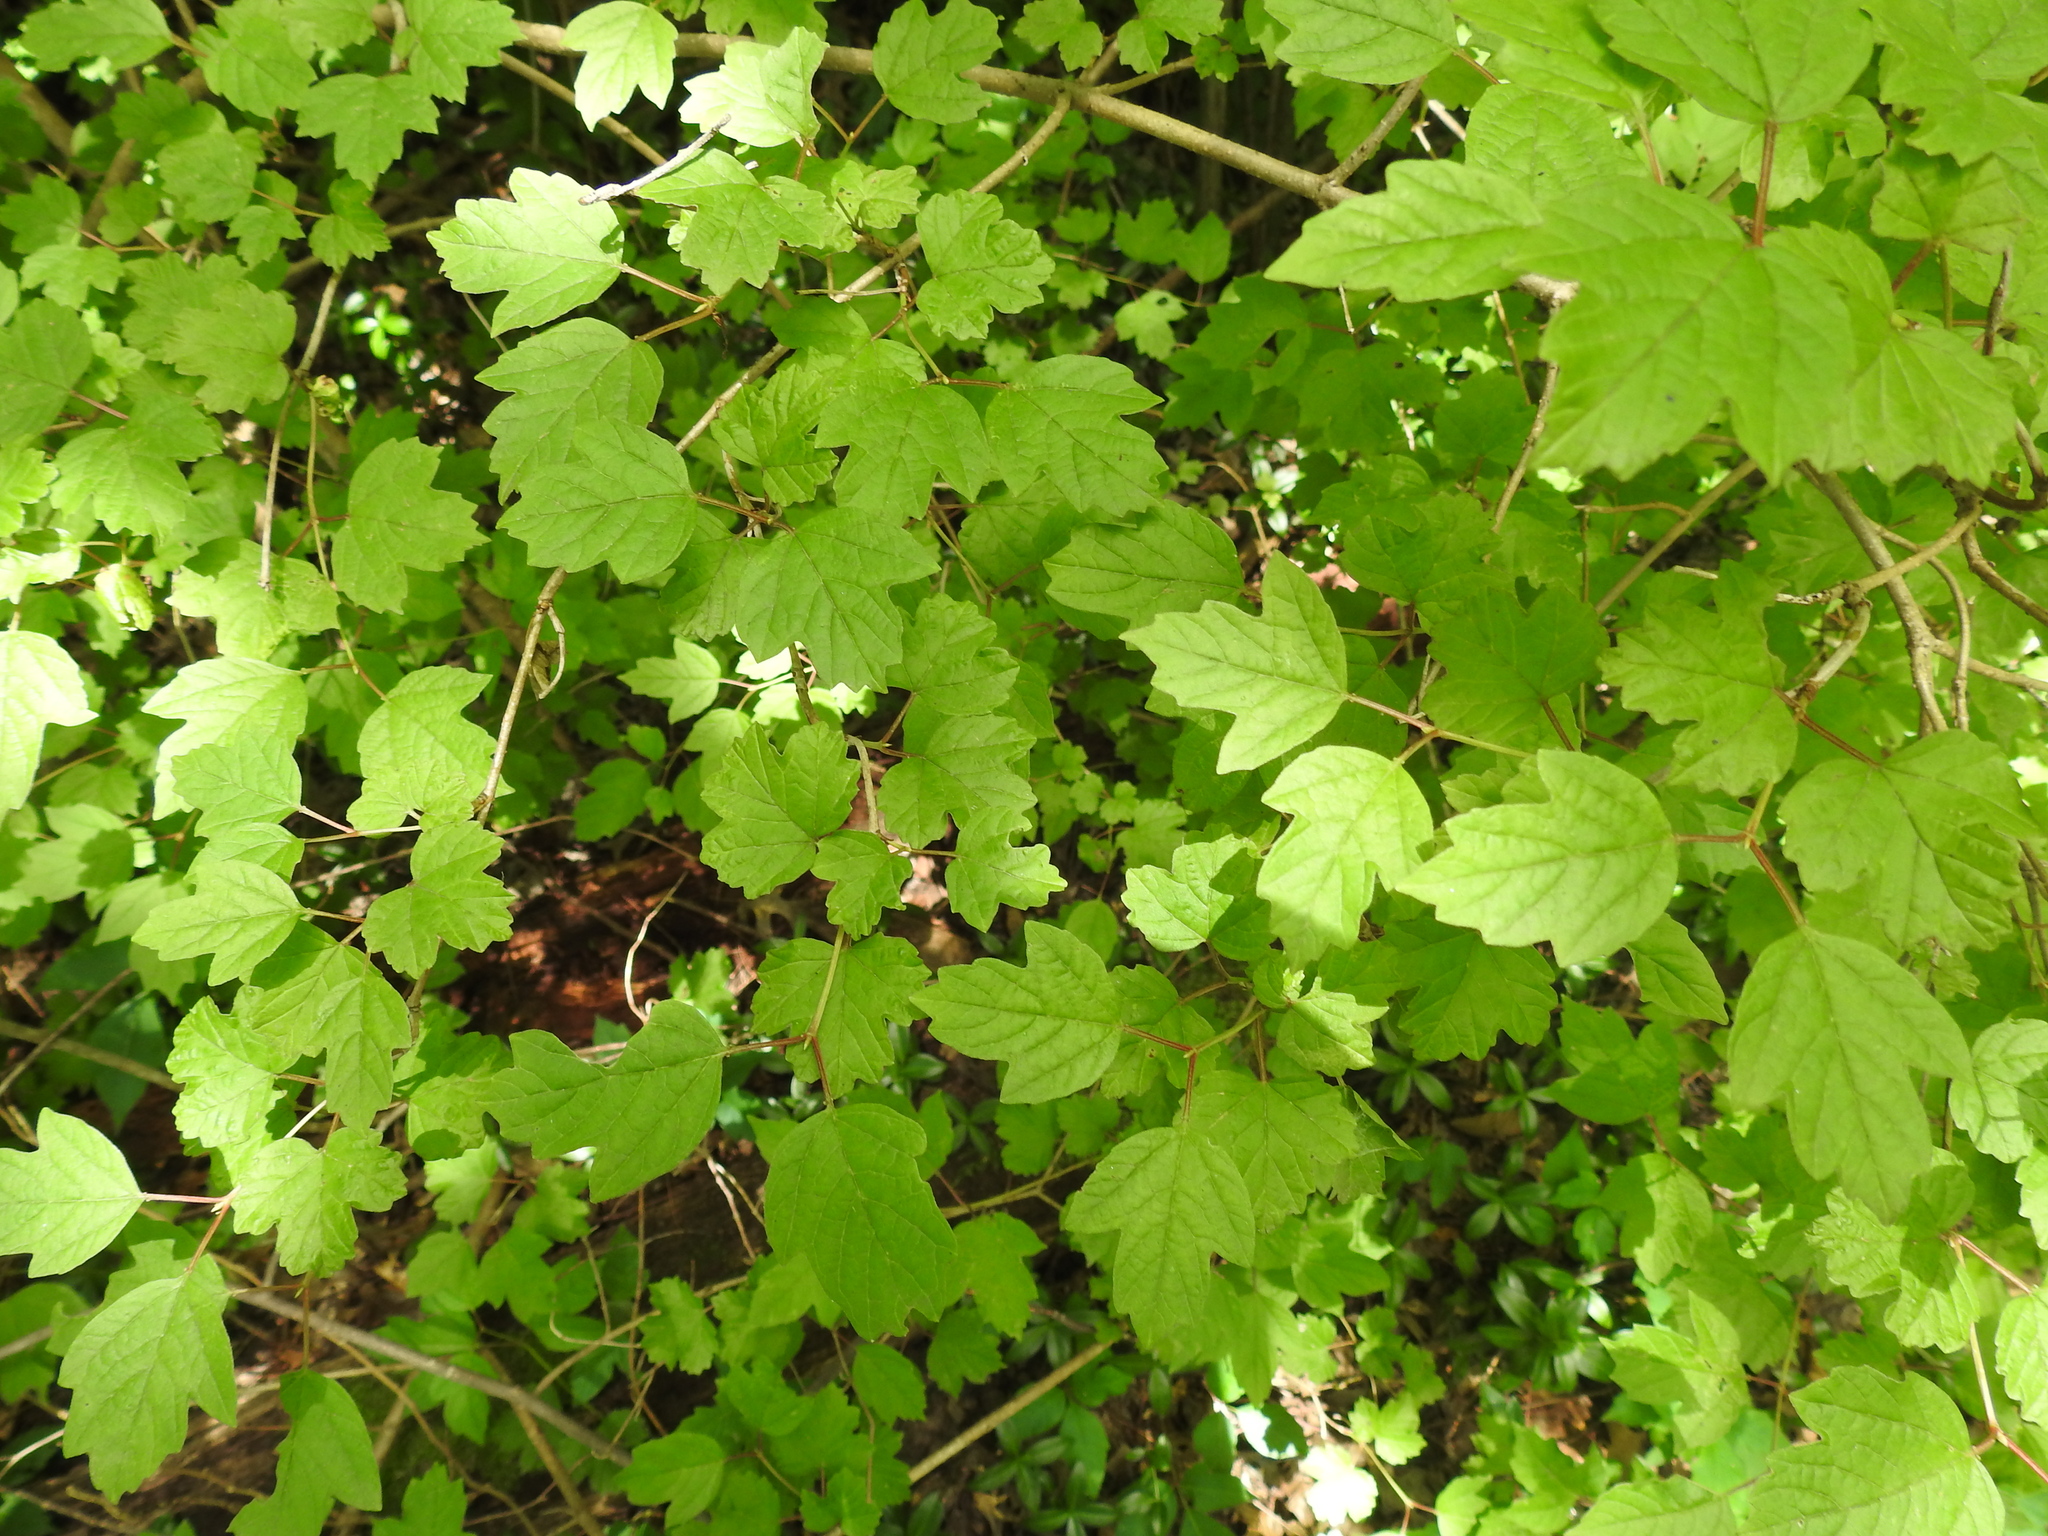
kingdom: Plantae
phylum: Tracheophyta
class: Magnoliopsida
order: Dipsacales
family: Viburnaceae
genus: Viburnum
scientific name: Viburnum opulus
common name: Guelder-rose
